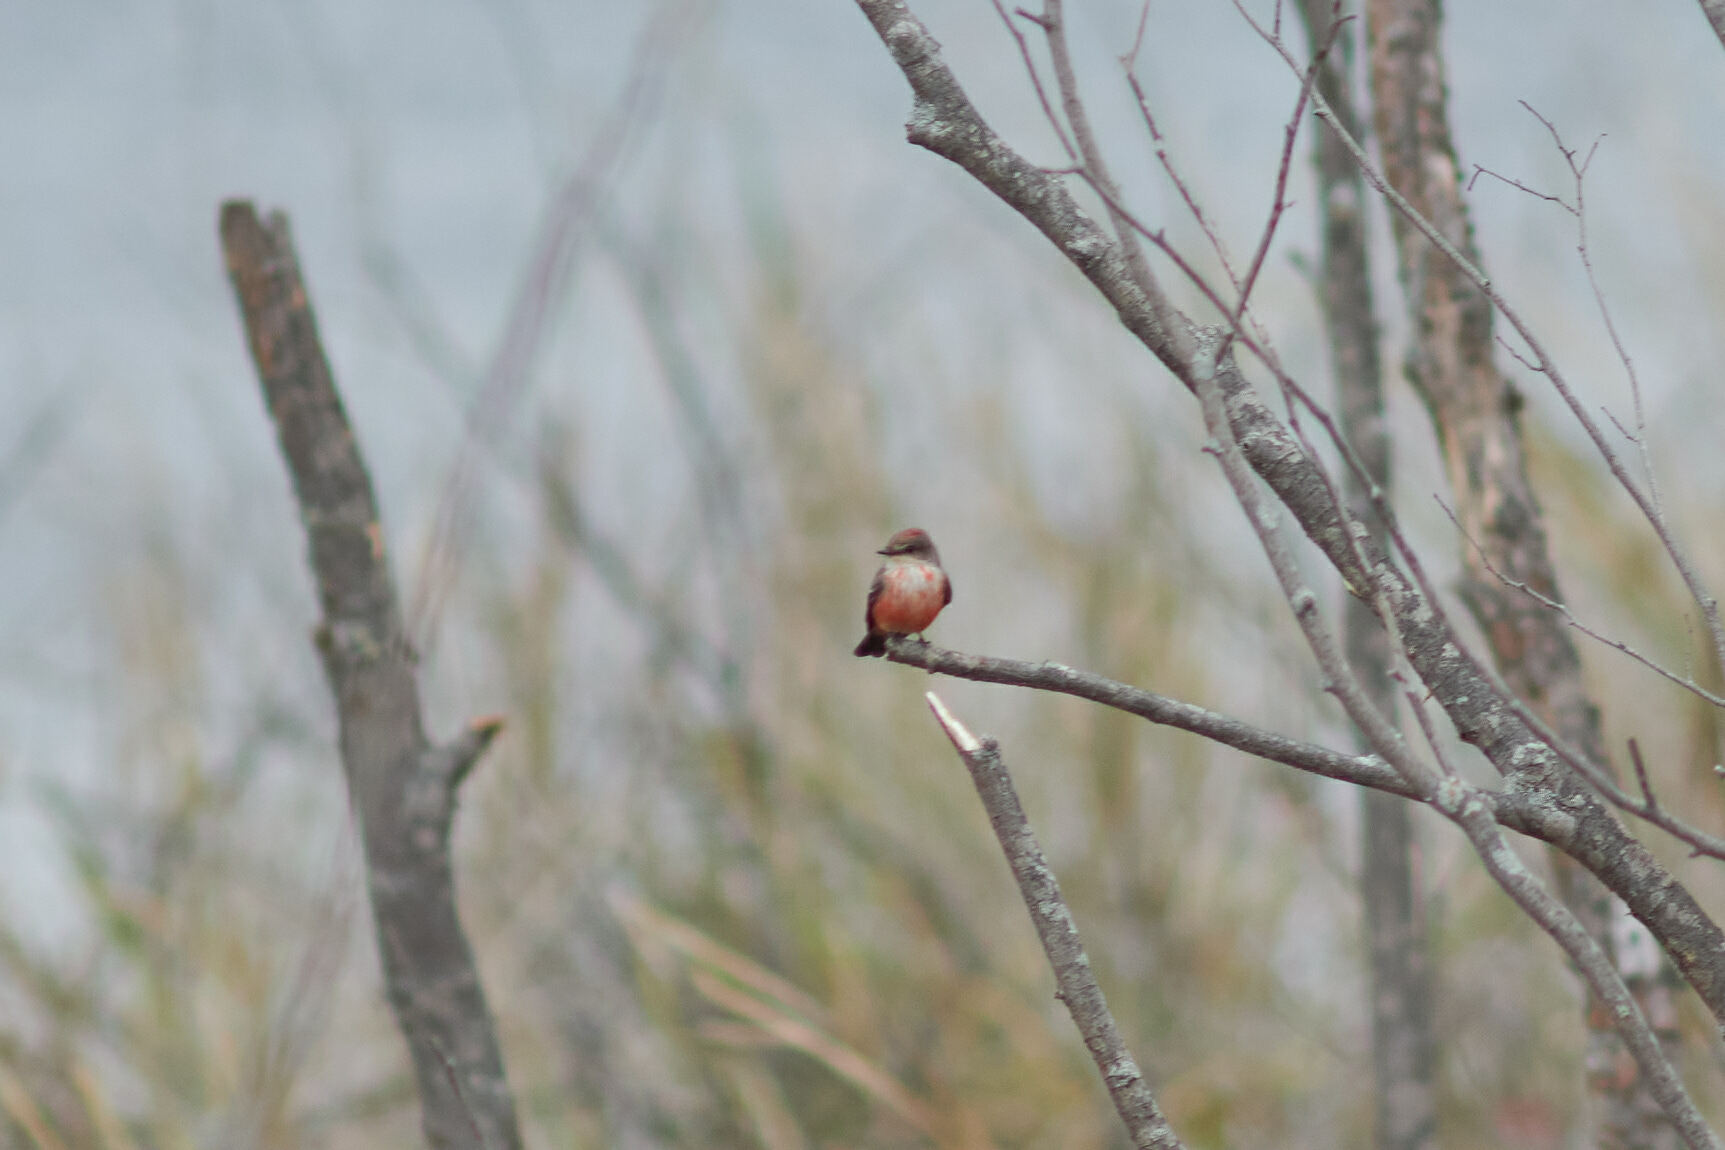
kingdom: Animalia
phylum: Chordata
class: Aves
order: Passeriformes
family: Tyrannidae
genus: Pyrocephalus
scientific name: Pyrocephalus rubinus
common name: Vermilion flycatcher
